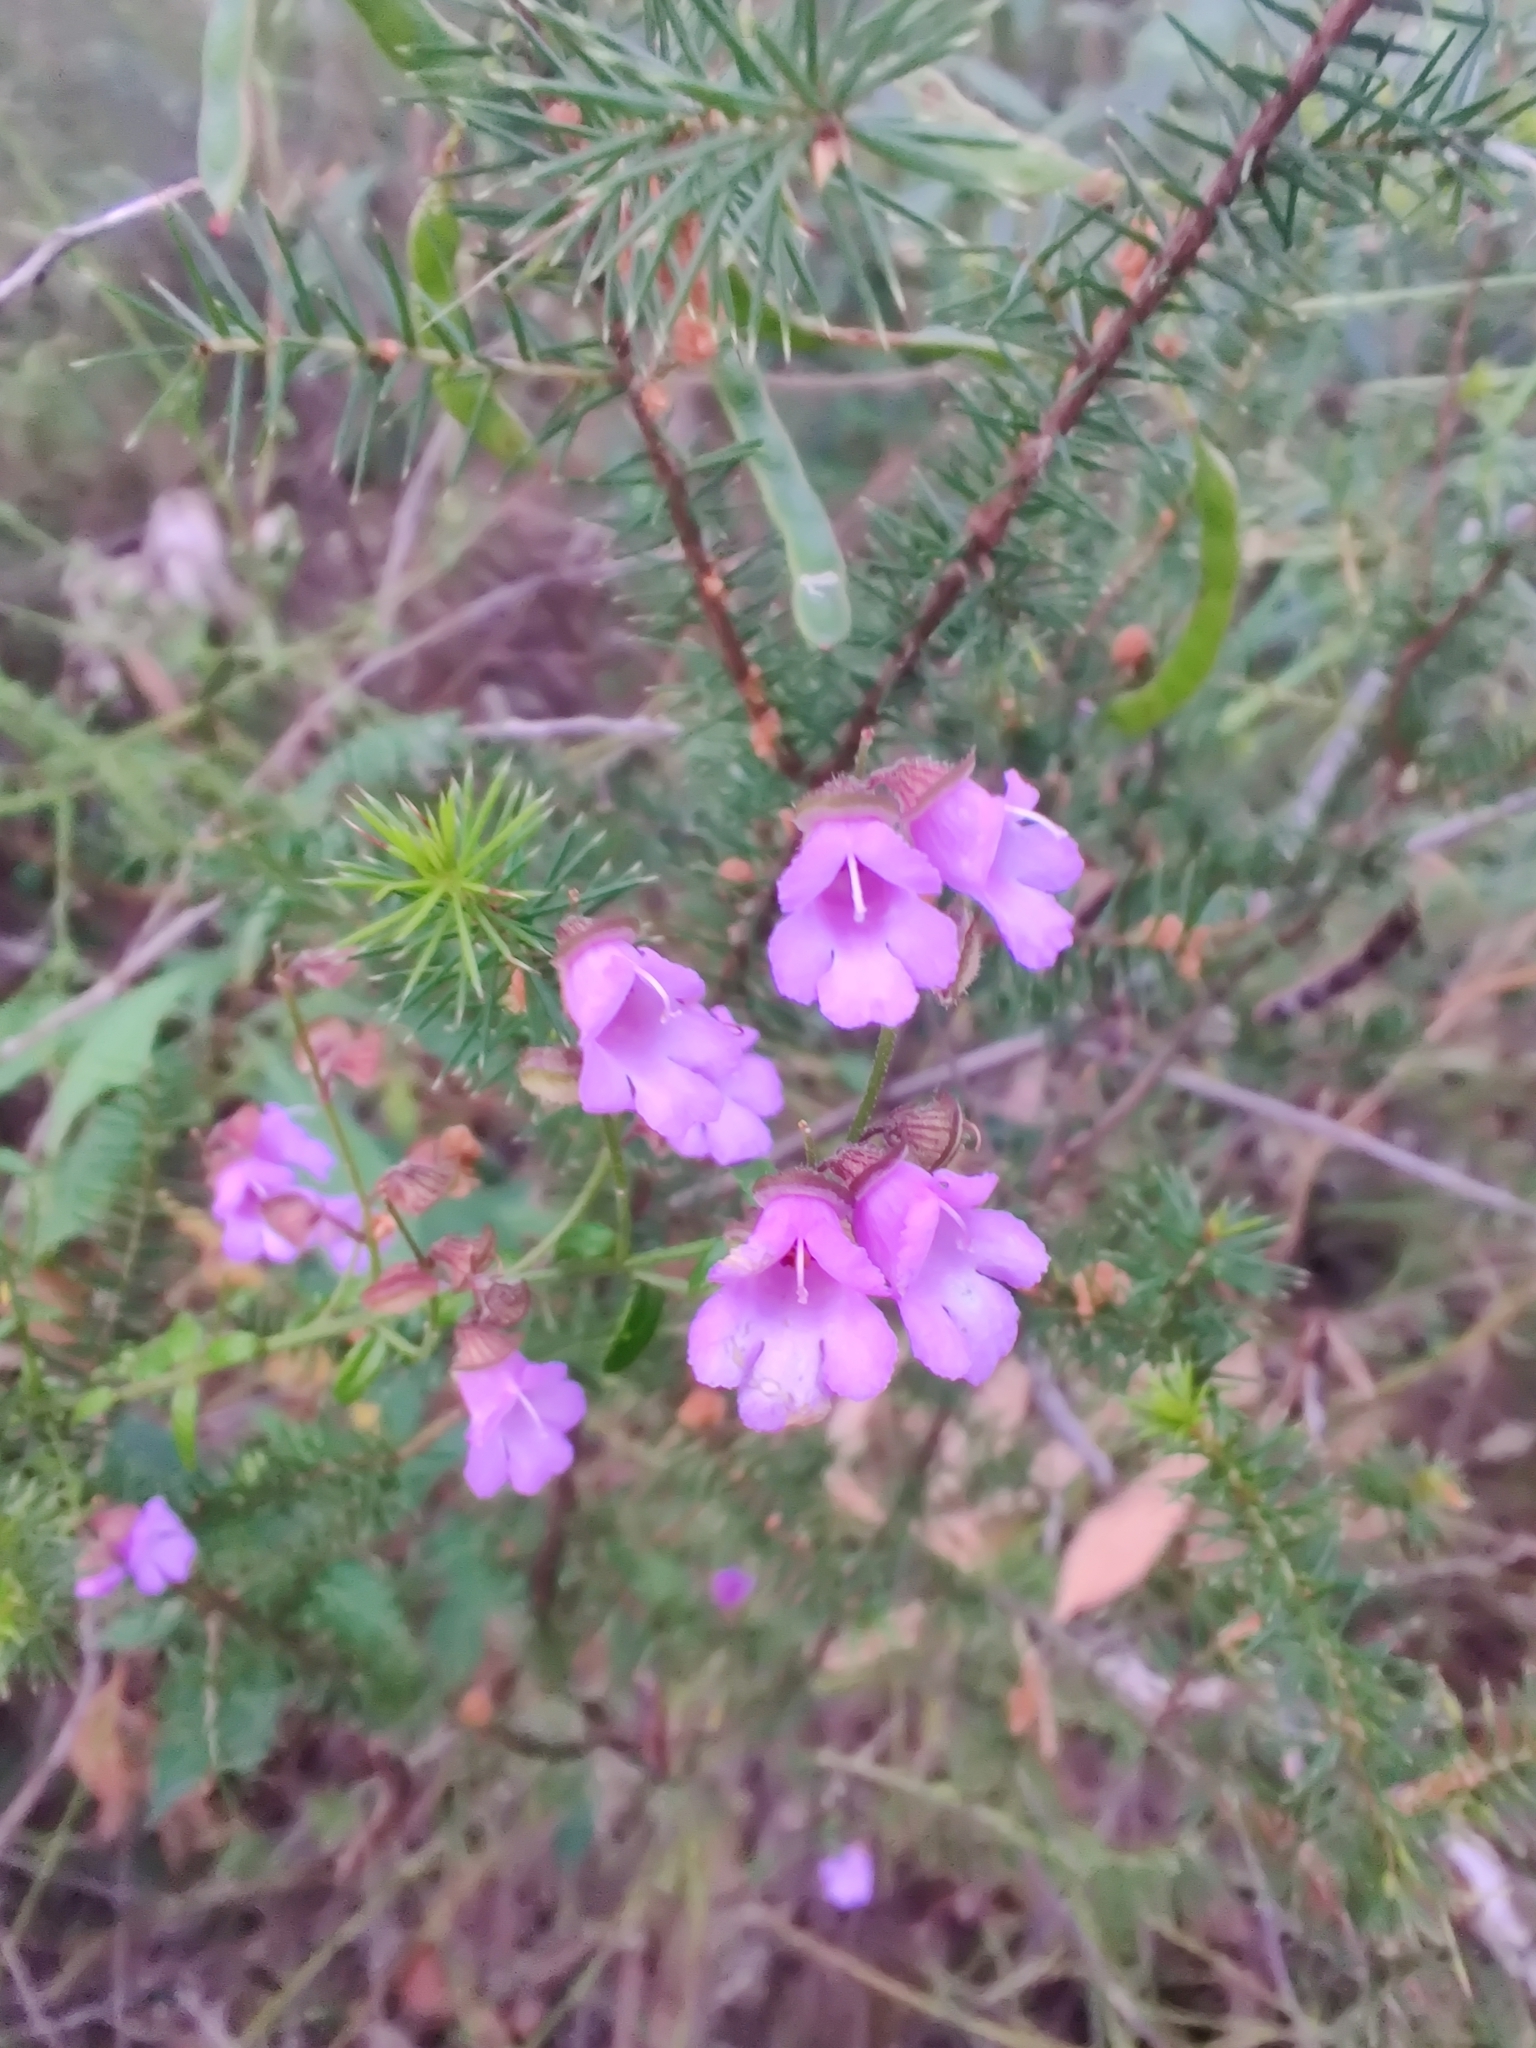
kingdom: Plantae
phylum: Tracheophyta
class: Magnoliopsida
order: Lamiales
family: Lamiaceae
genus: Prostanthera
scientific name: Prostanthera denticulata
